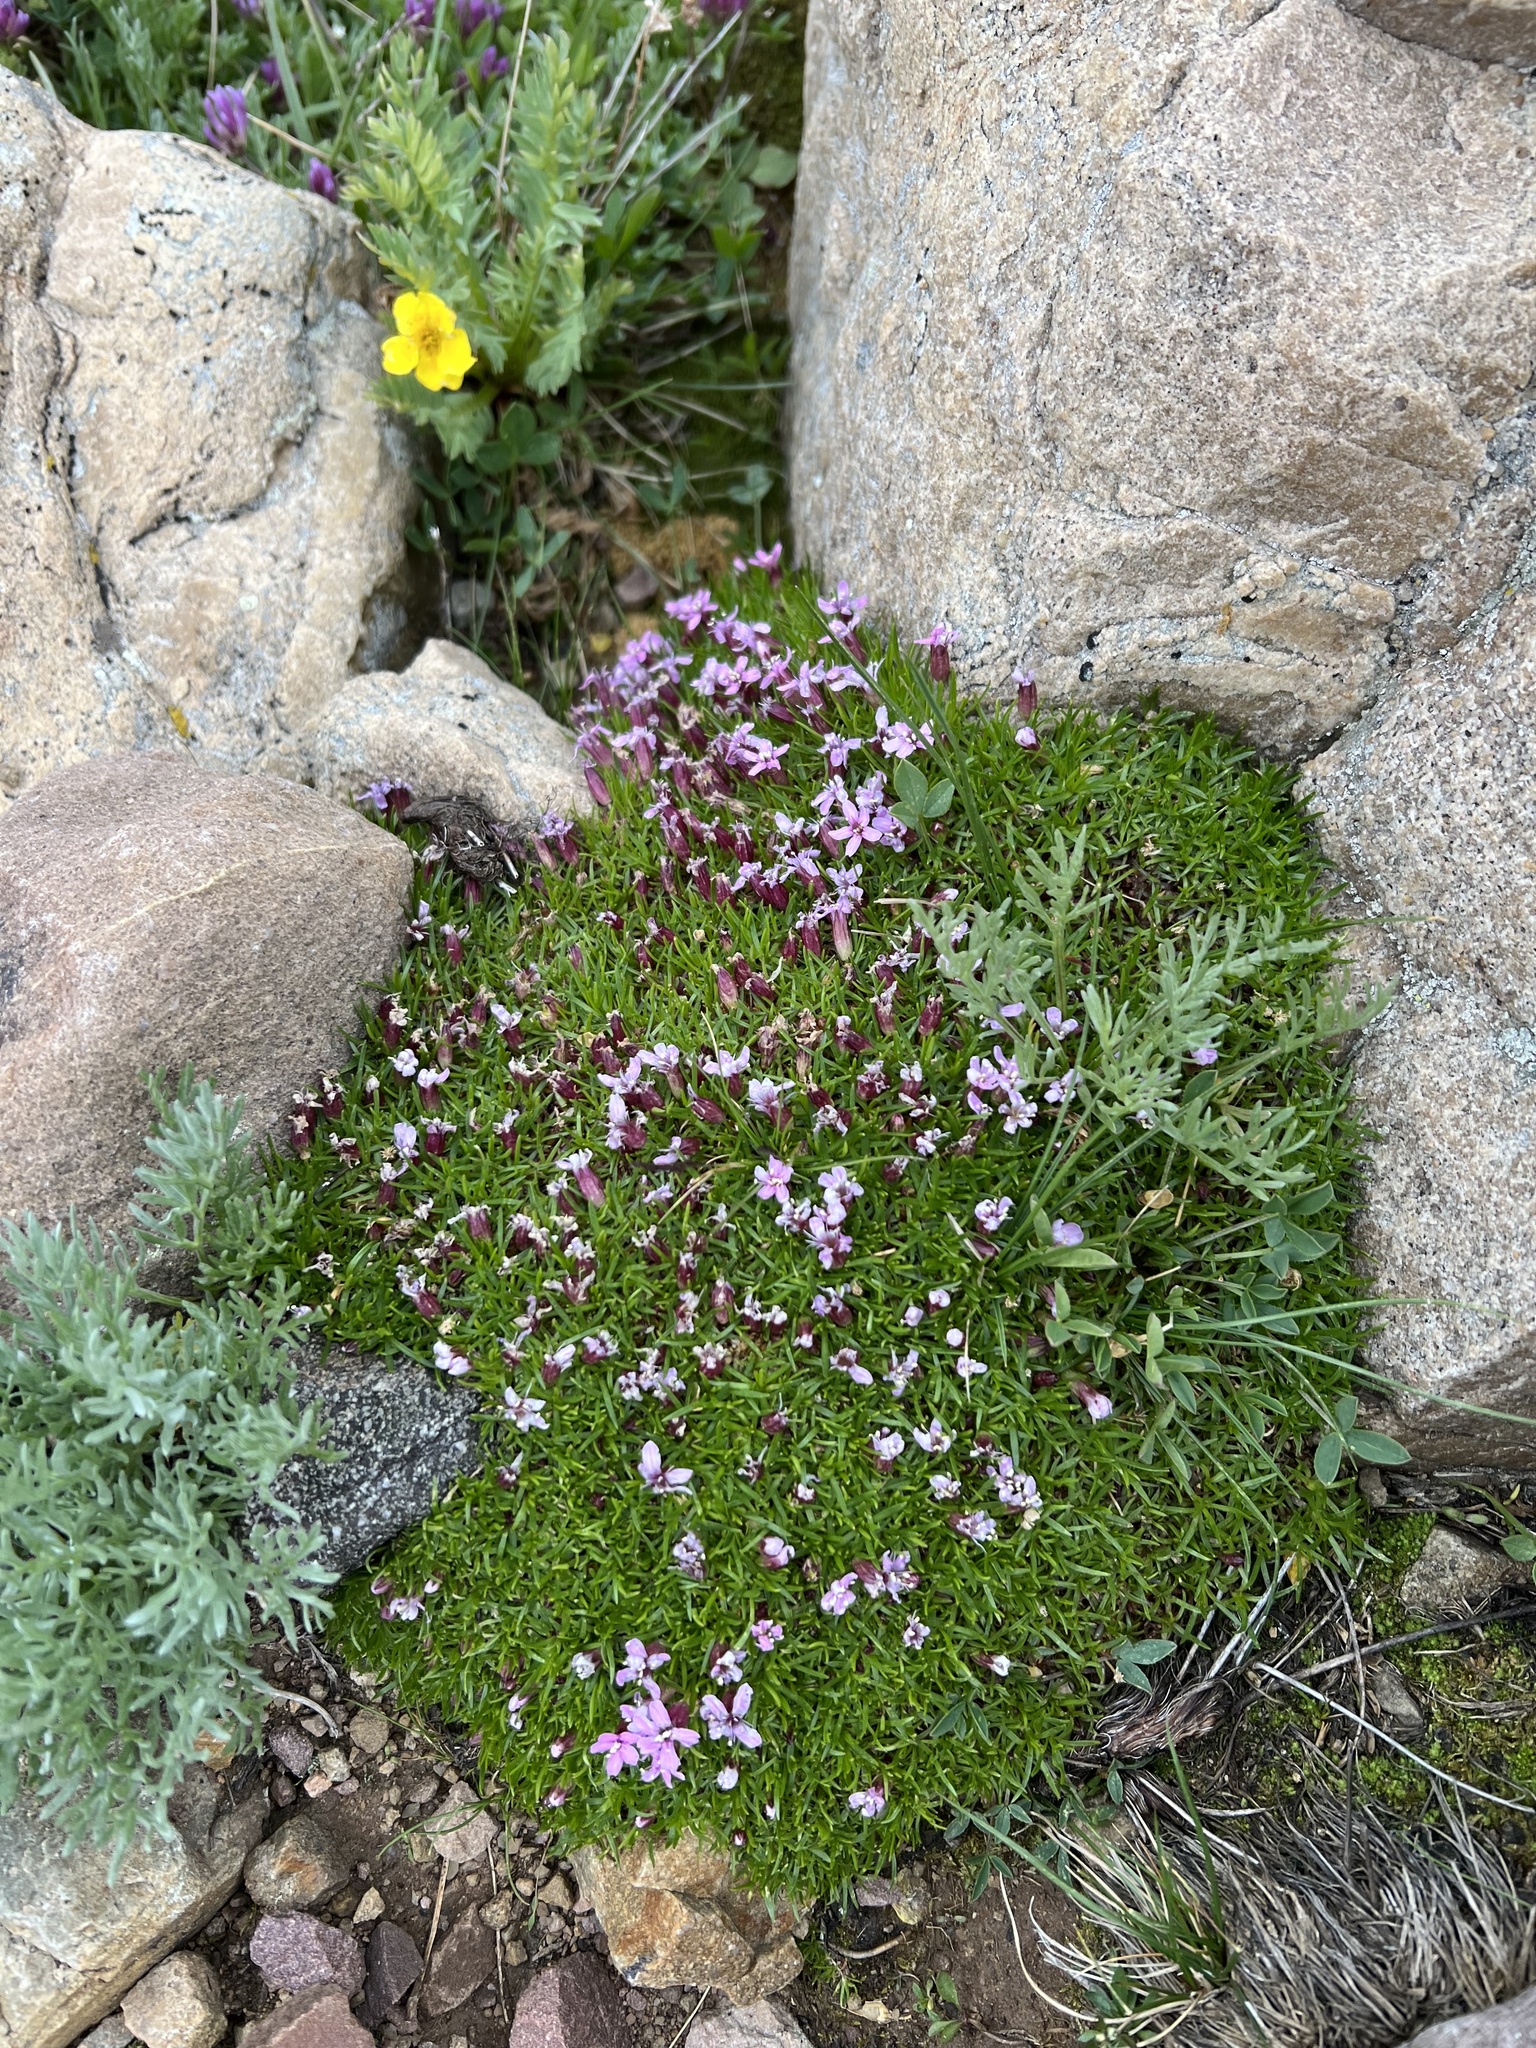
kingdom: Plantae
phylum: Tracheophyta
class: Magnoliopsida
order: Caryophyllales
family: Caryophyllaceae
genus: Silene
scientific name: Silene acaulis
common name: Moss campion
